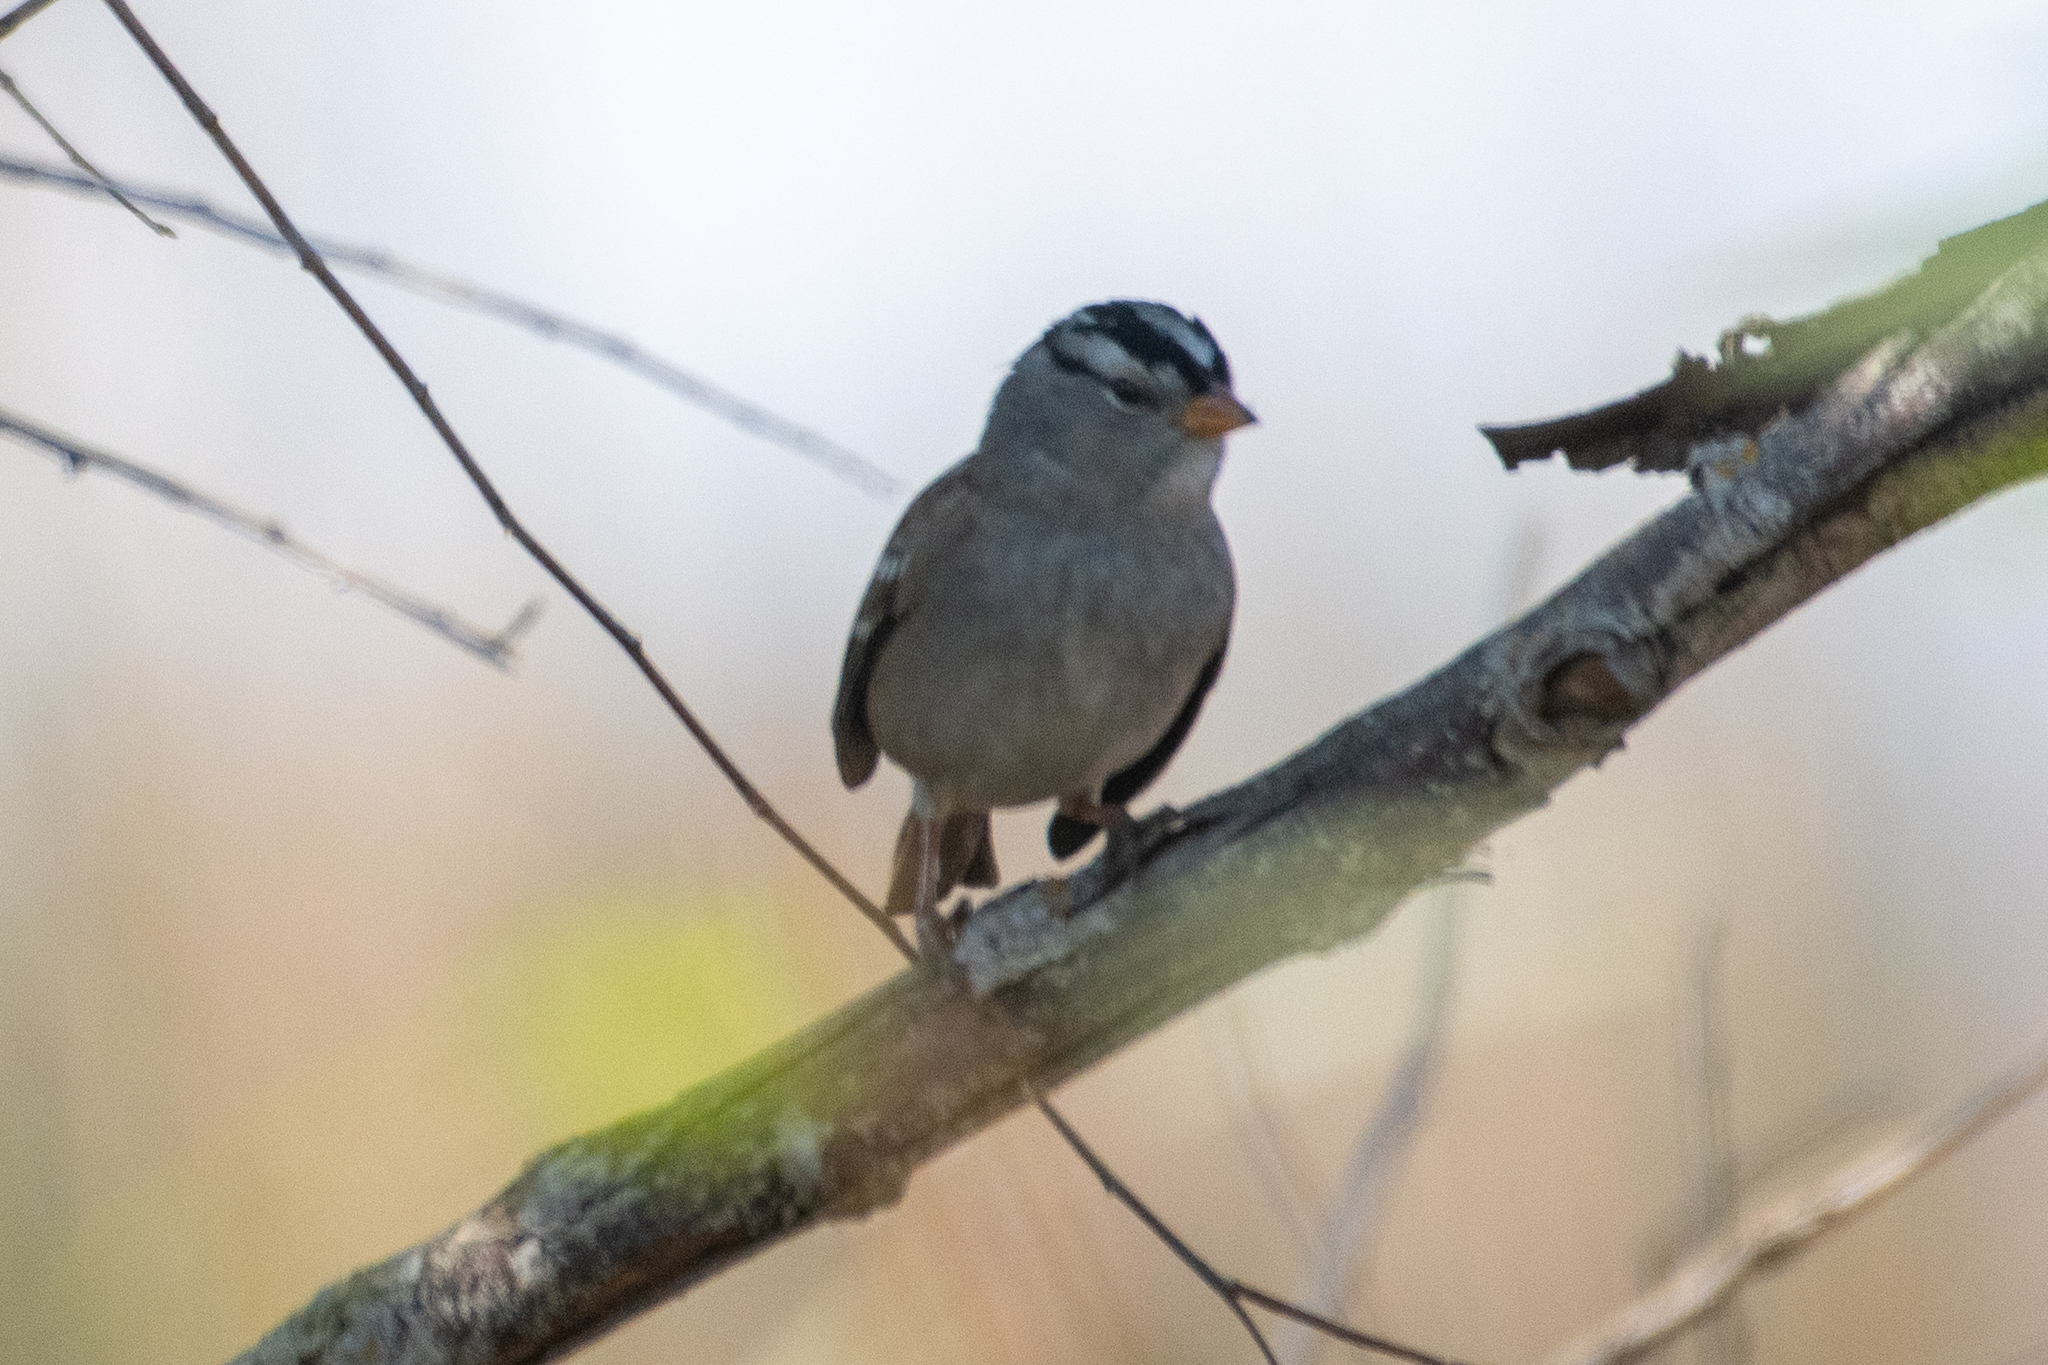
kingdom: Animalia
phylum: Chordata
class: Aves
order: Passeriformes
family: Passerellidae
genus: Zonotrichia
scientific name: Zonotrichia leucophrys
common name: White-crowned sparrow
